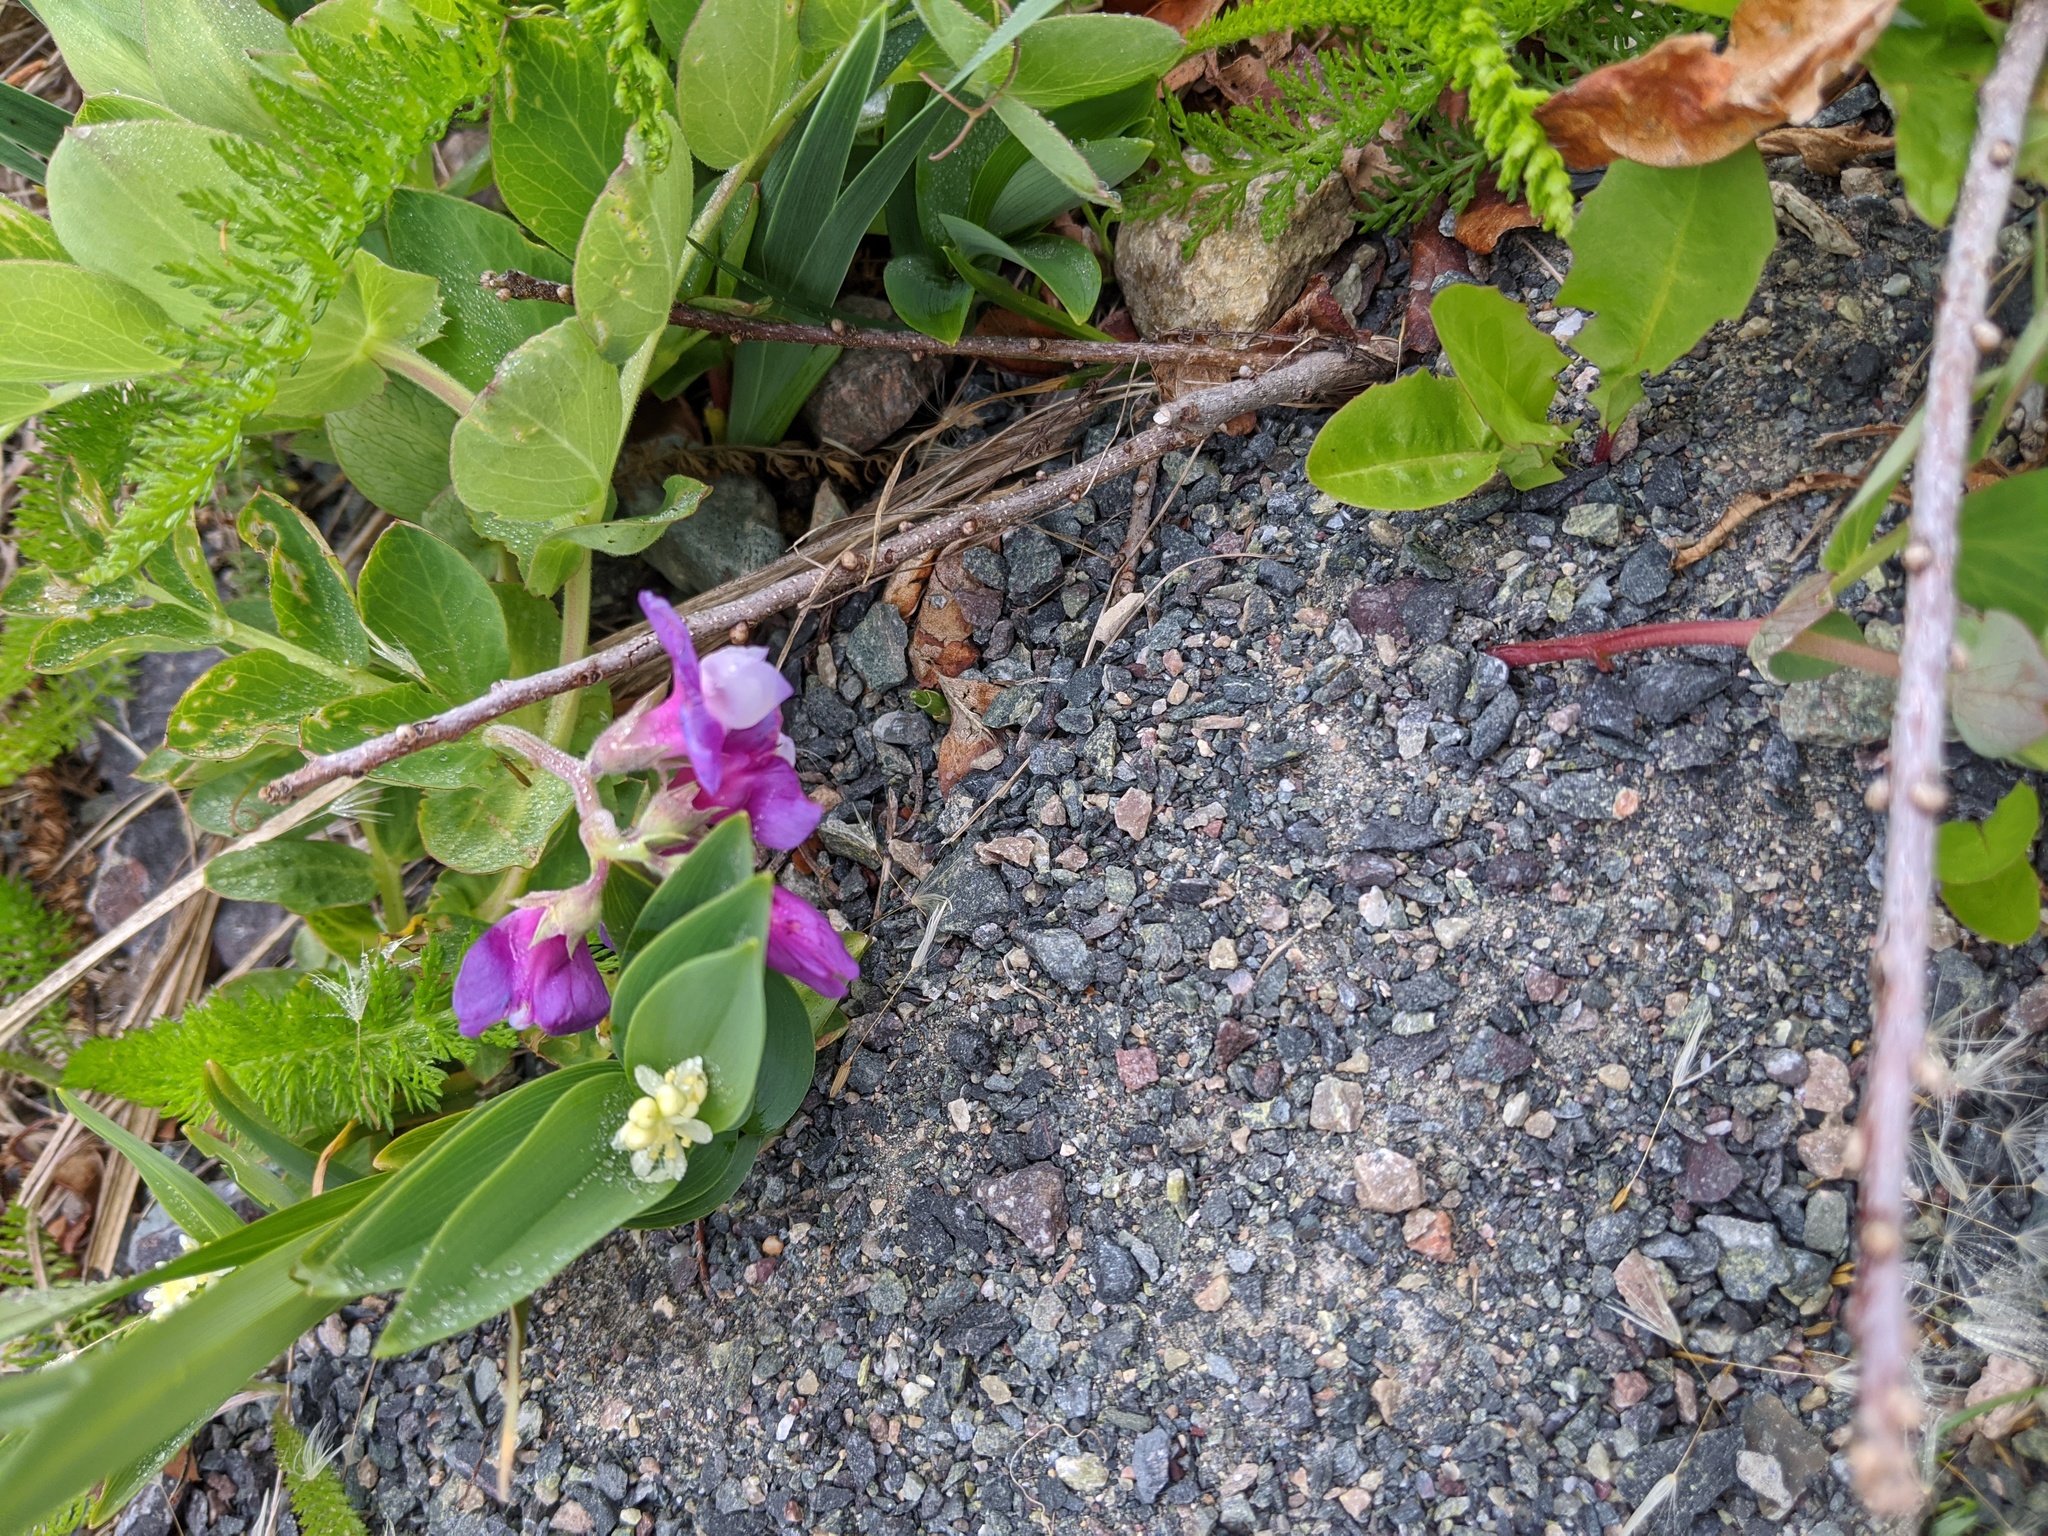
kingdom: Plantae
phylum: Tracheophyta
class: Magnoliopsida
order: Fabales
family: Fabaceae
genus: Lathyrus
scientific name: Lathyrus japonicus
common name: Sea pea
